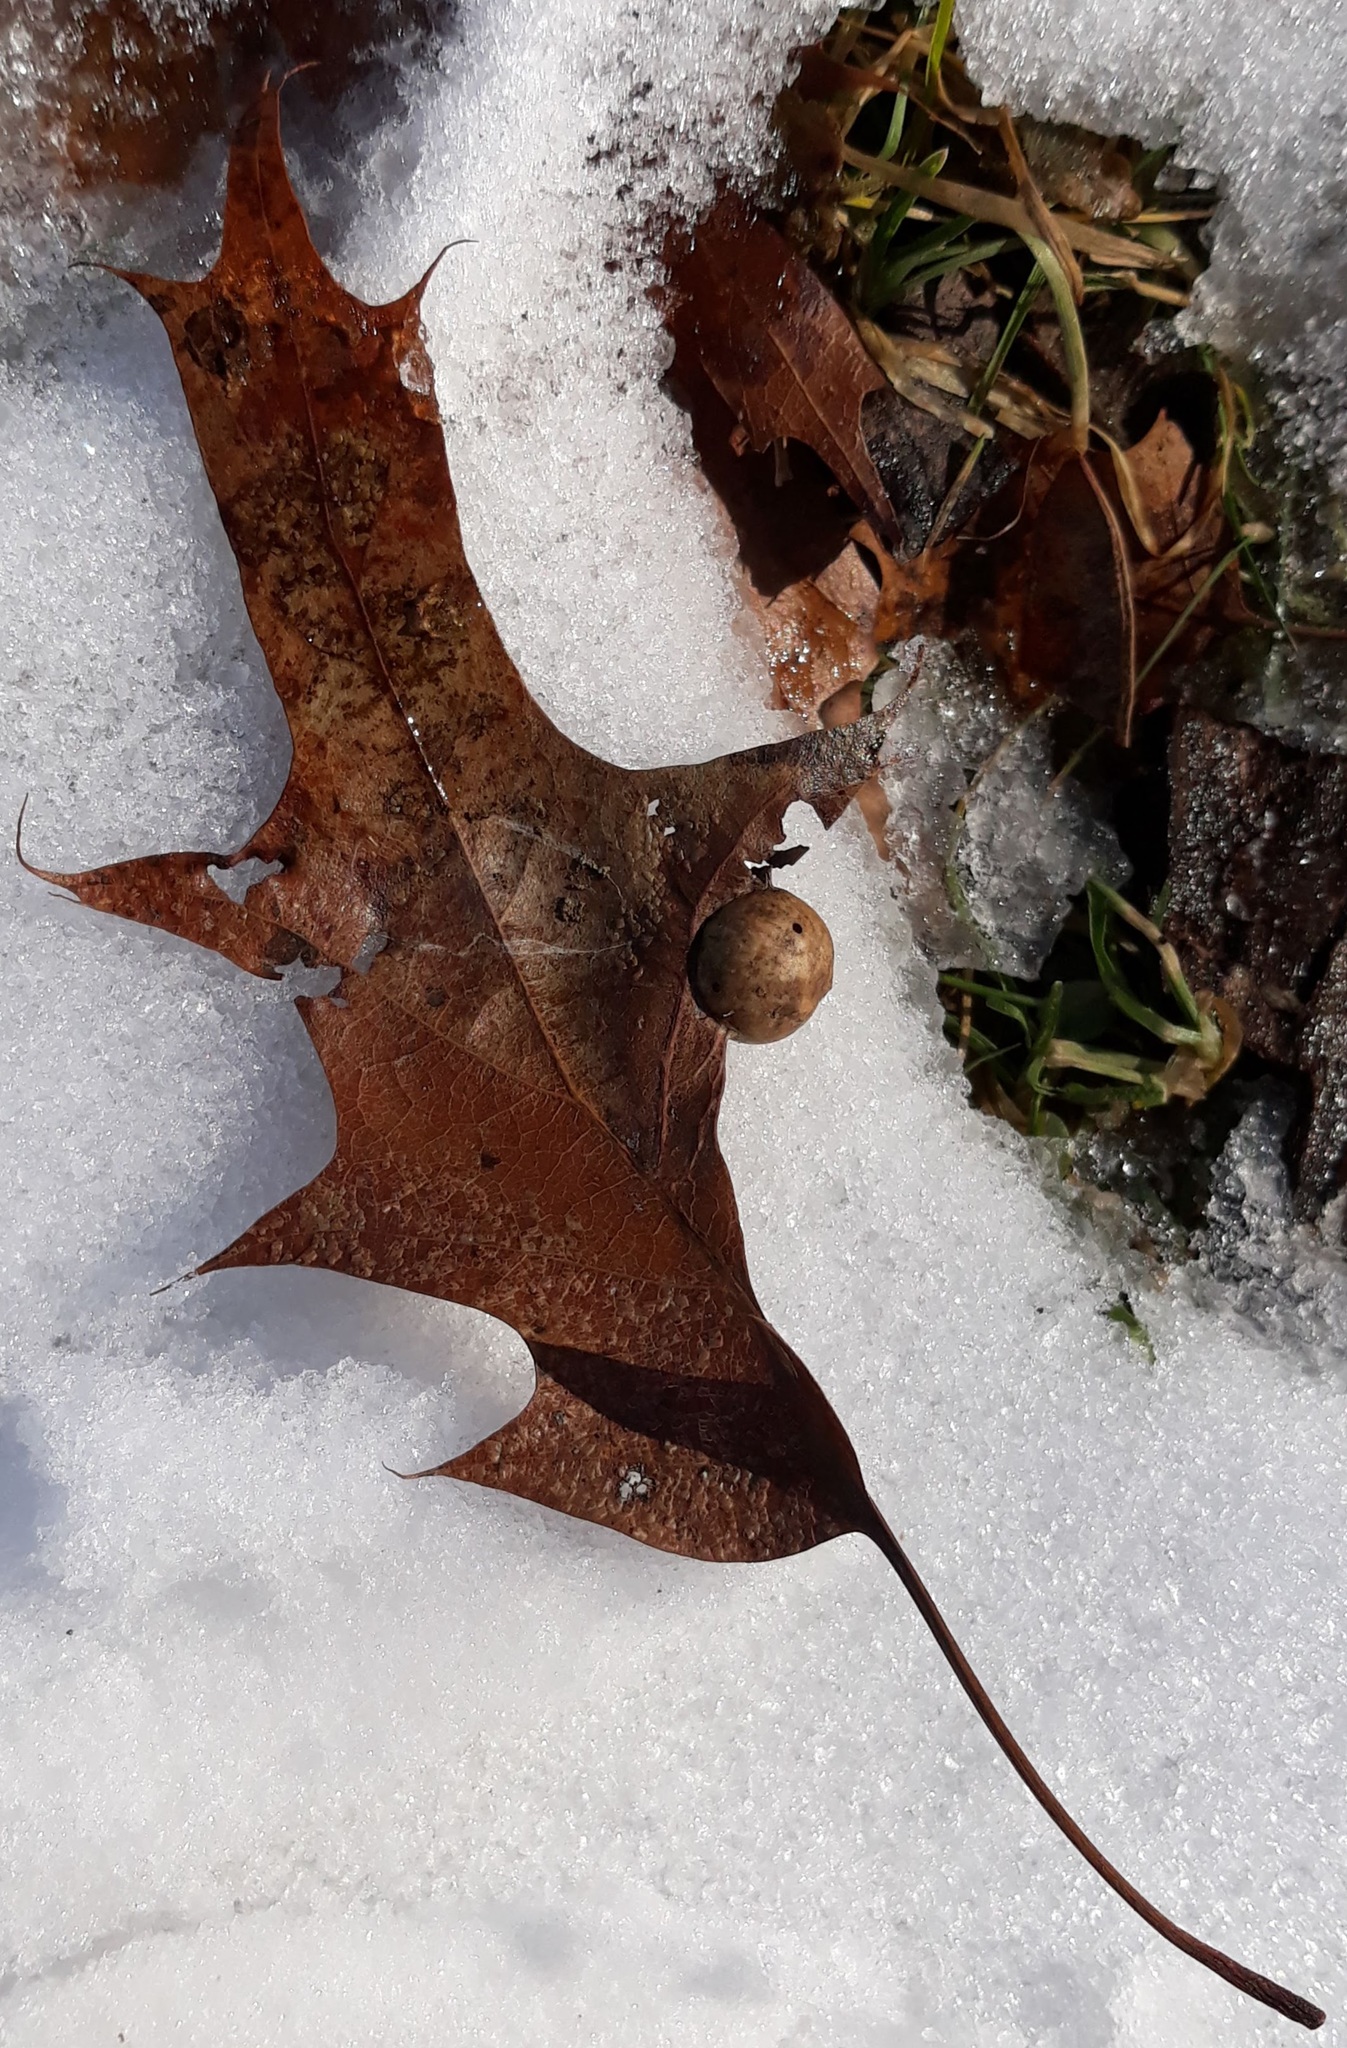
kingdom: Animalia
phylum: Arthropoda
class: Insecta
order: Hymenoptera
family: Cynipidae
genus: Amphibolips
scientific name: Amphibolips
